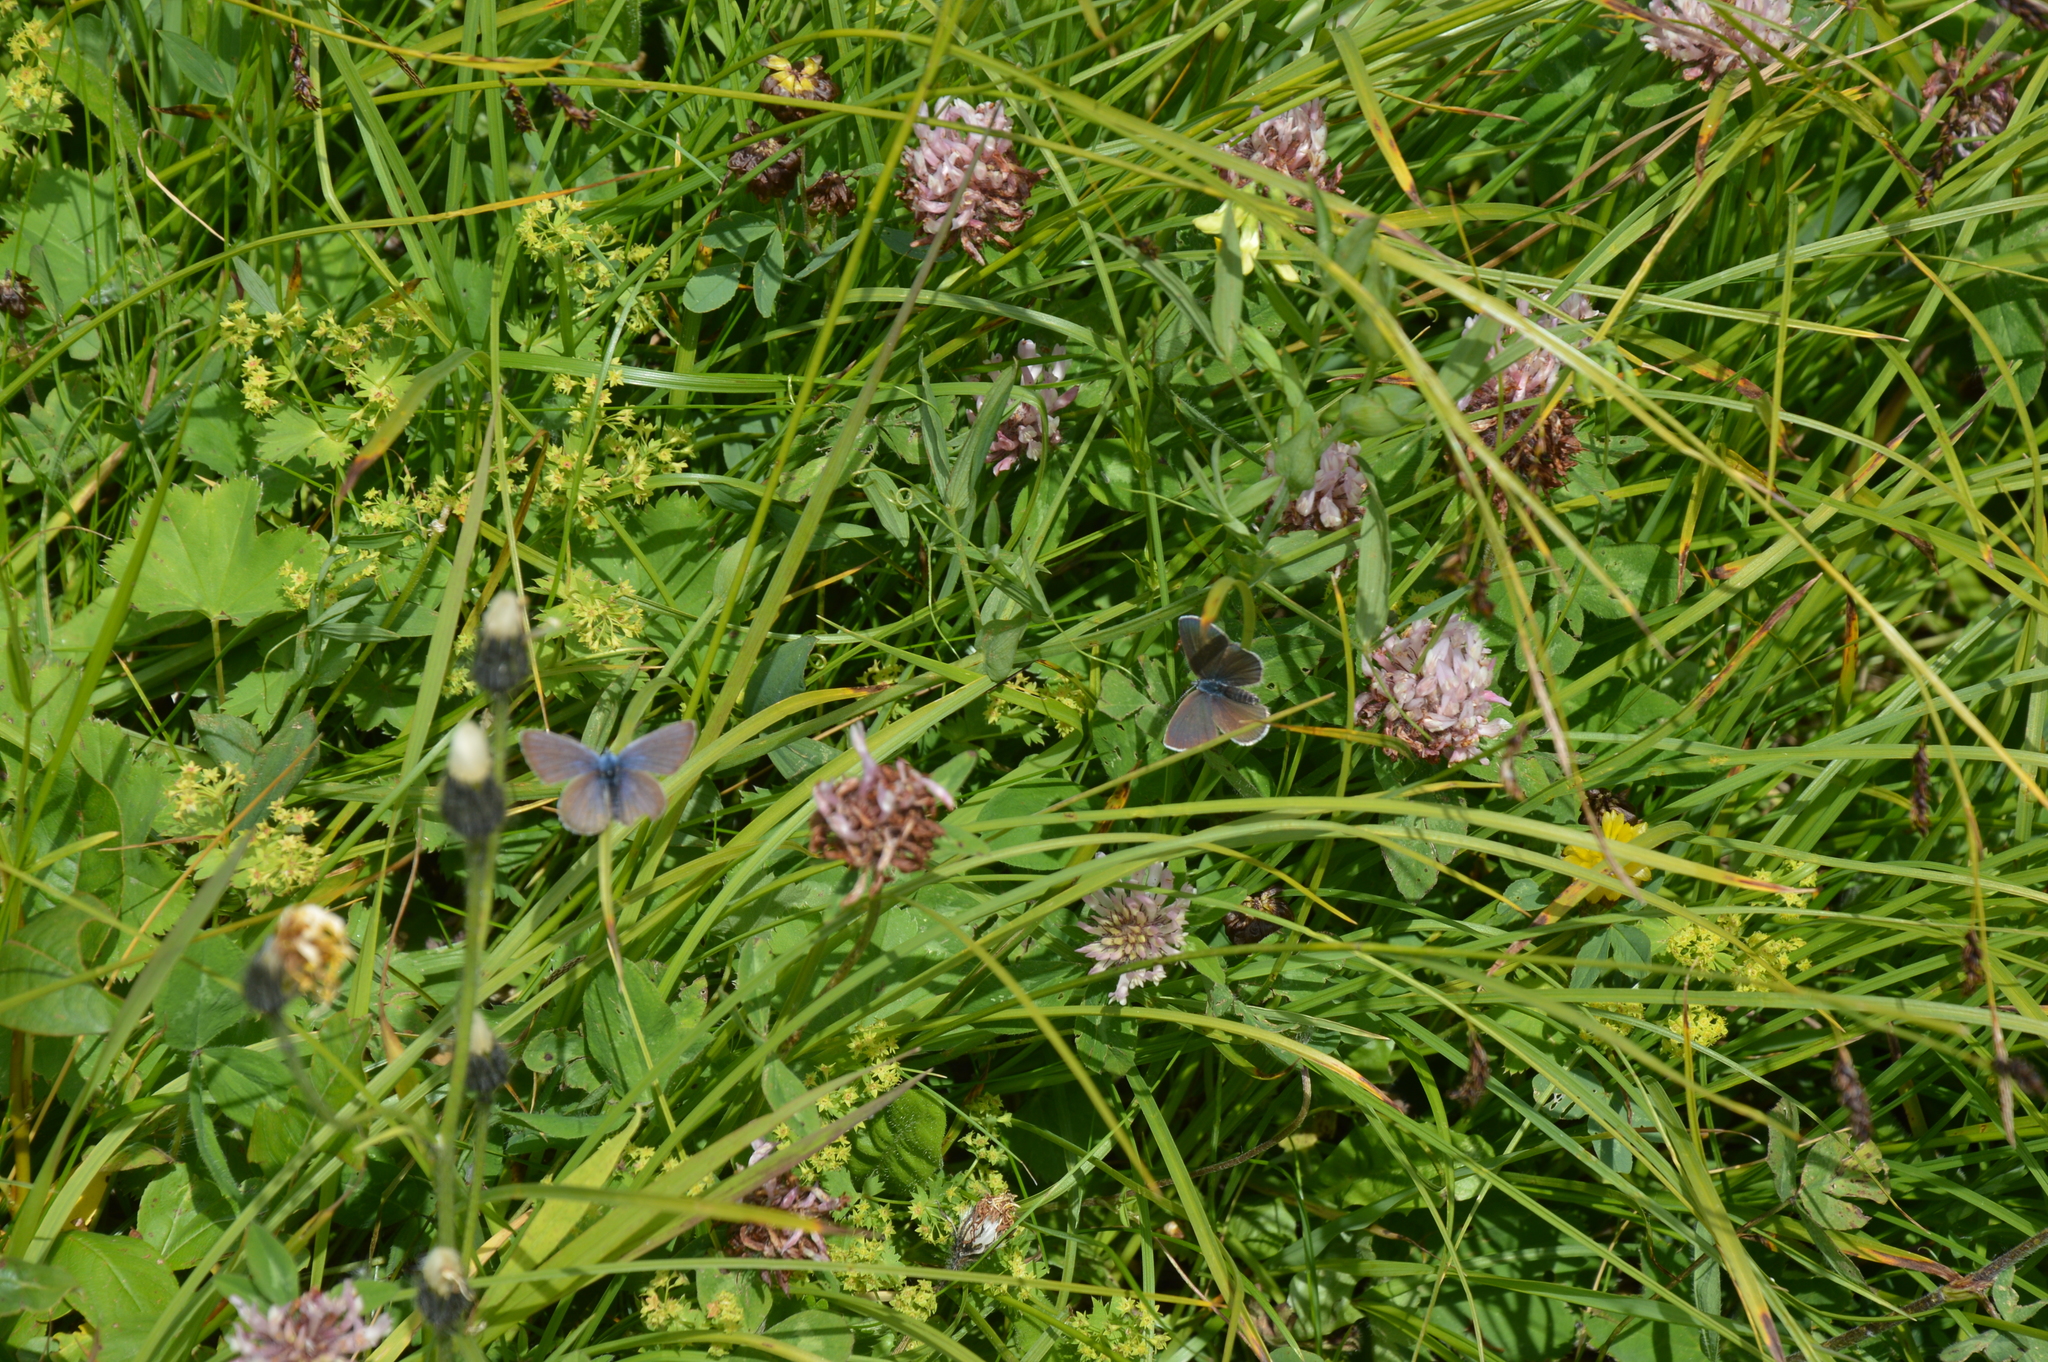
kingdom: Animalia
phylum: Arthropoda
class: Insecta
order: Lepidoptera
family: Lycaenidae
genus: Cyaniris
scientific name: Cyaniris semiargus
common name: Mazarine blue
